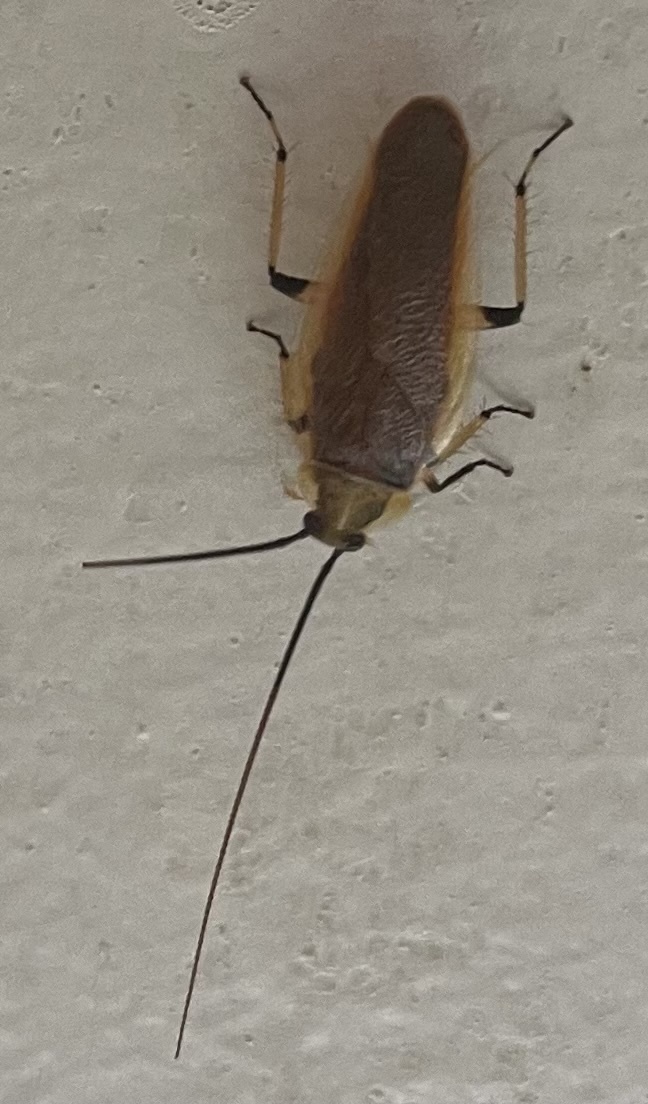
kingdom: Animalia
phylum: Arthropoda
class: Insecta
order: Blattodea
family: Ectobiidae
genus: Balta
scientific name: Balta bicolor
